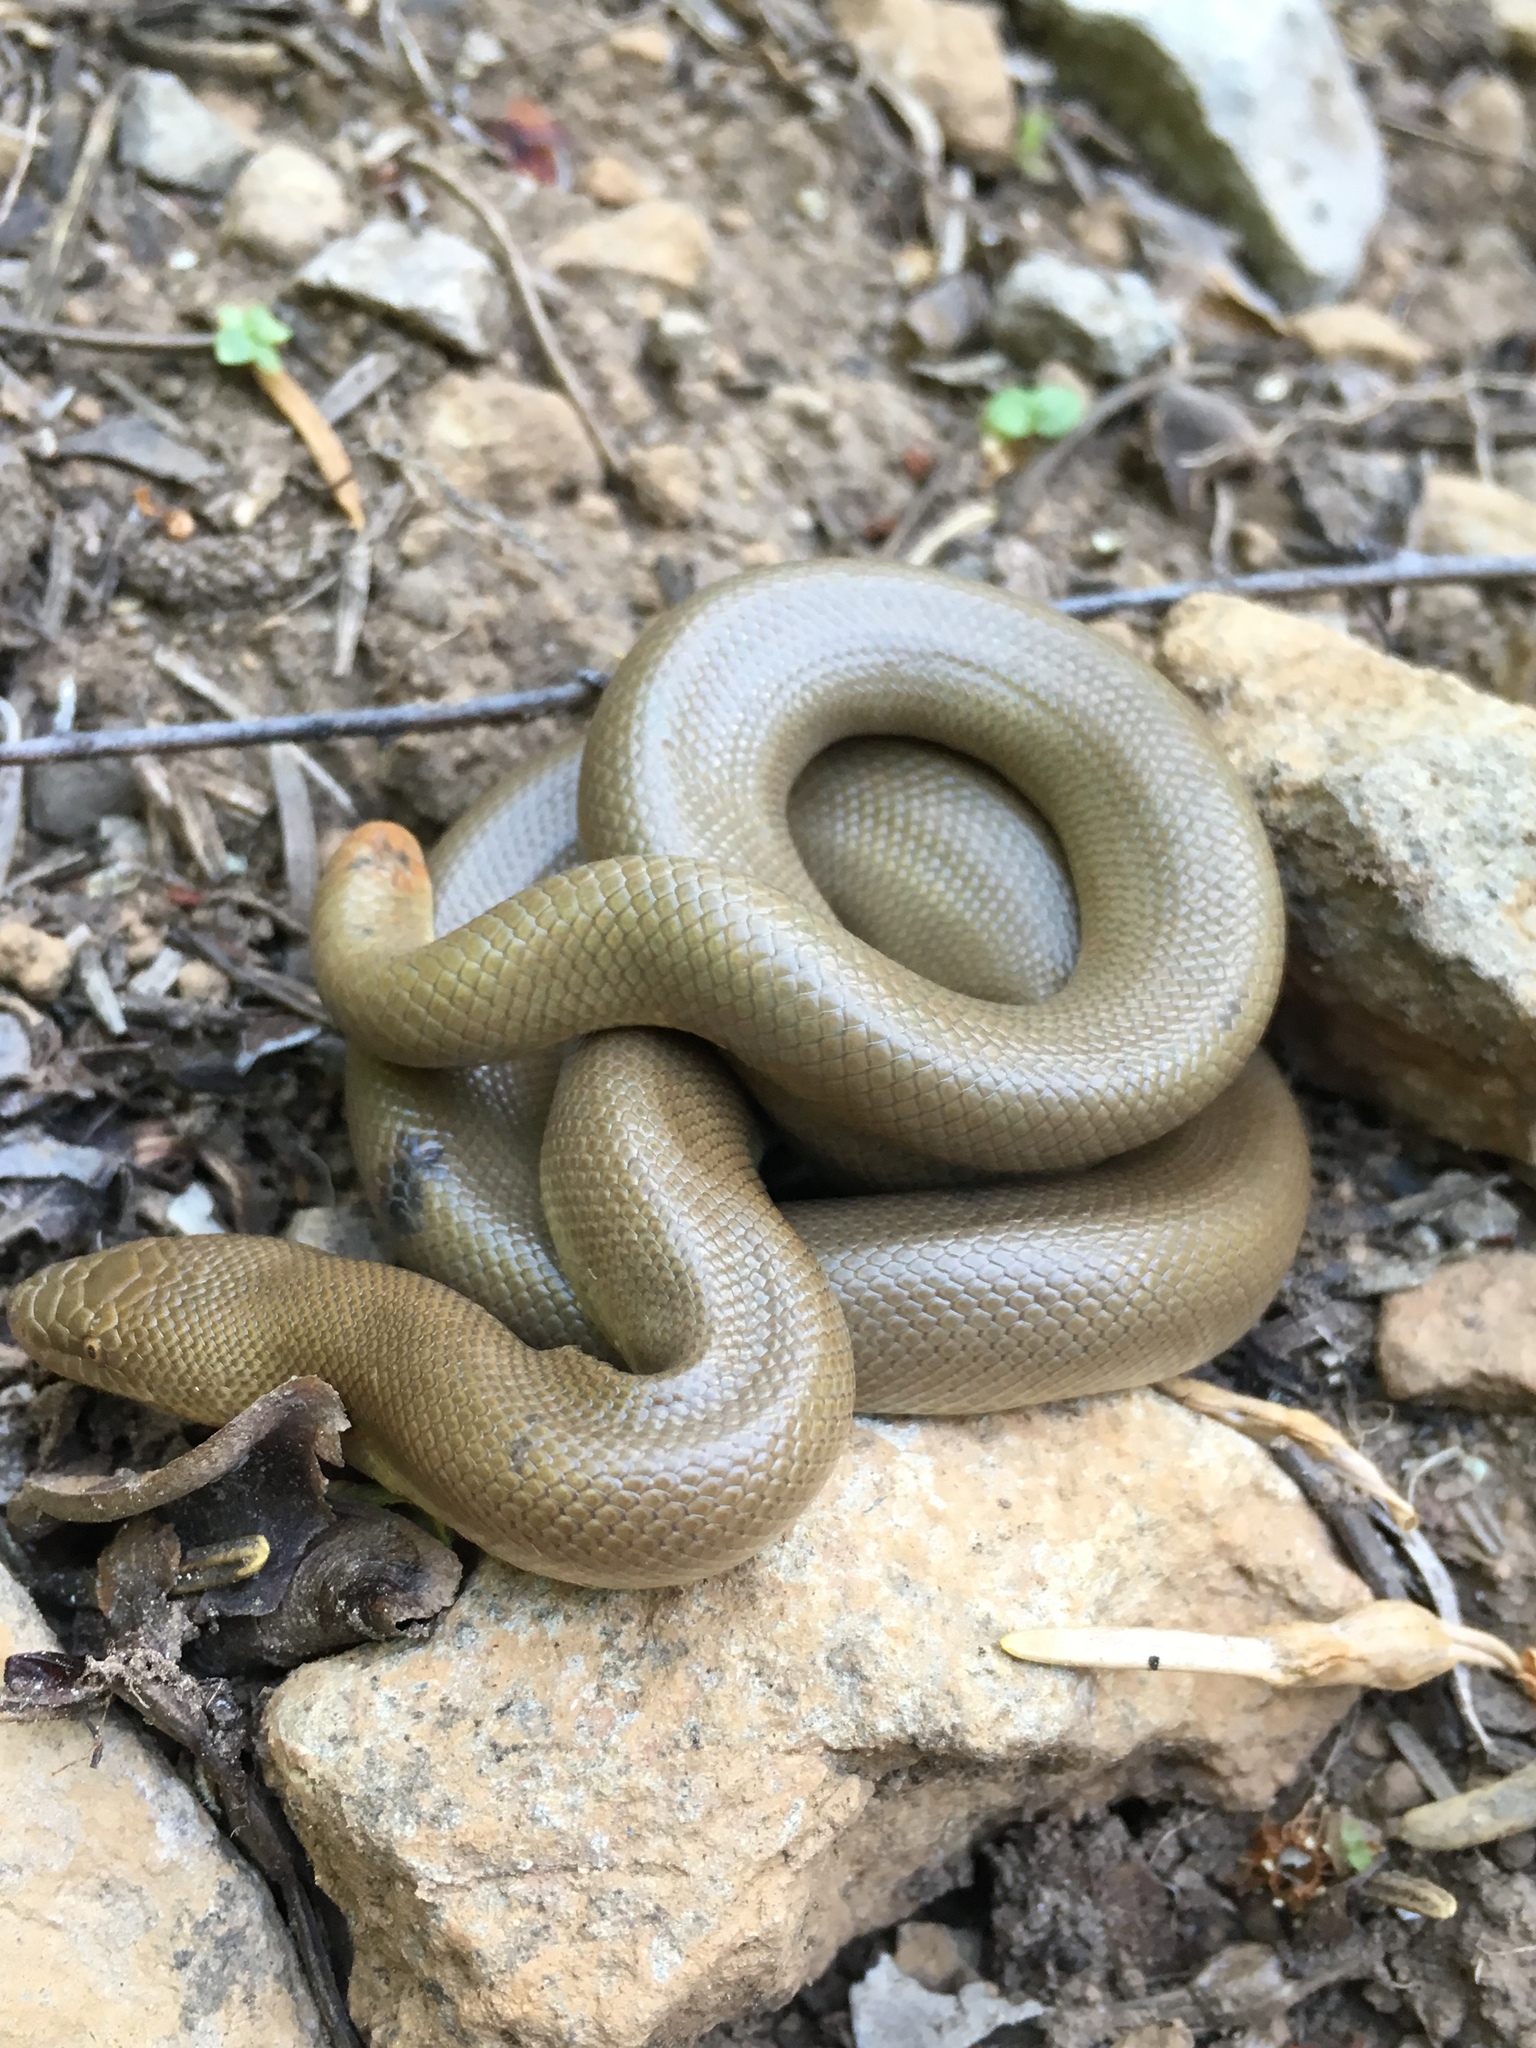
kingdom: Animalia
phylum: Chordata
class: Squamata
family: Boidae
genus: Charina
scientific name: Charina bottae
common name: Northern rubber boa
